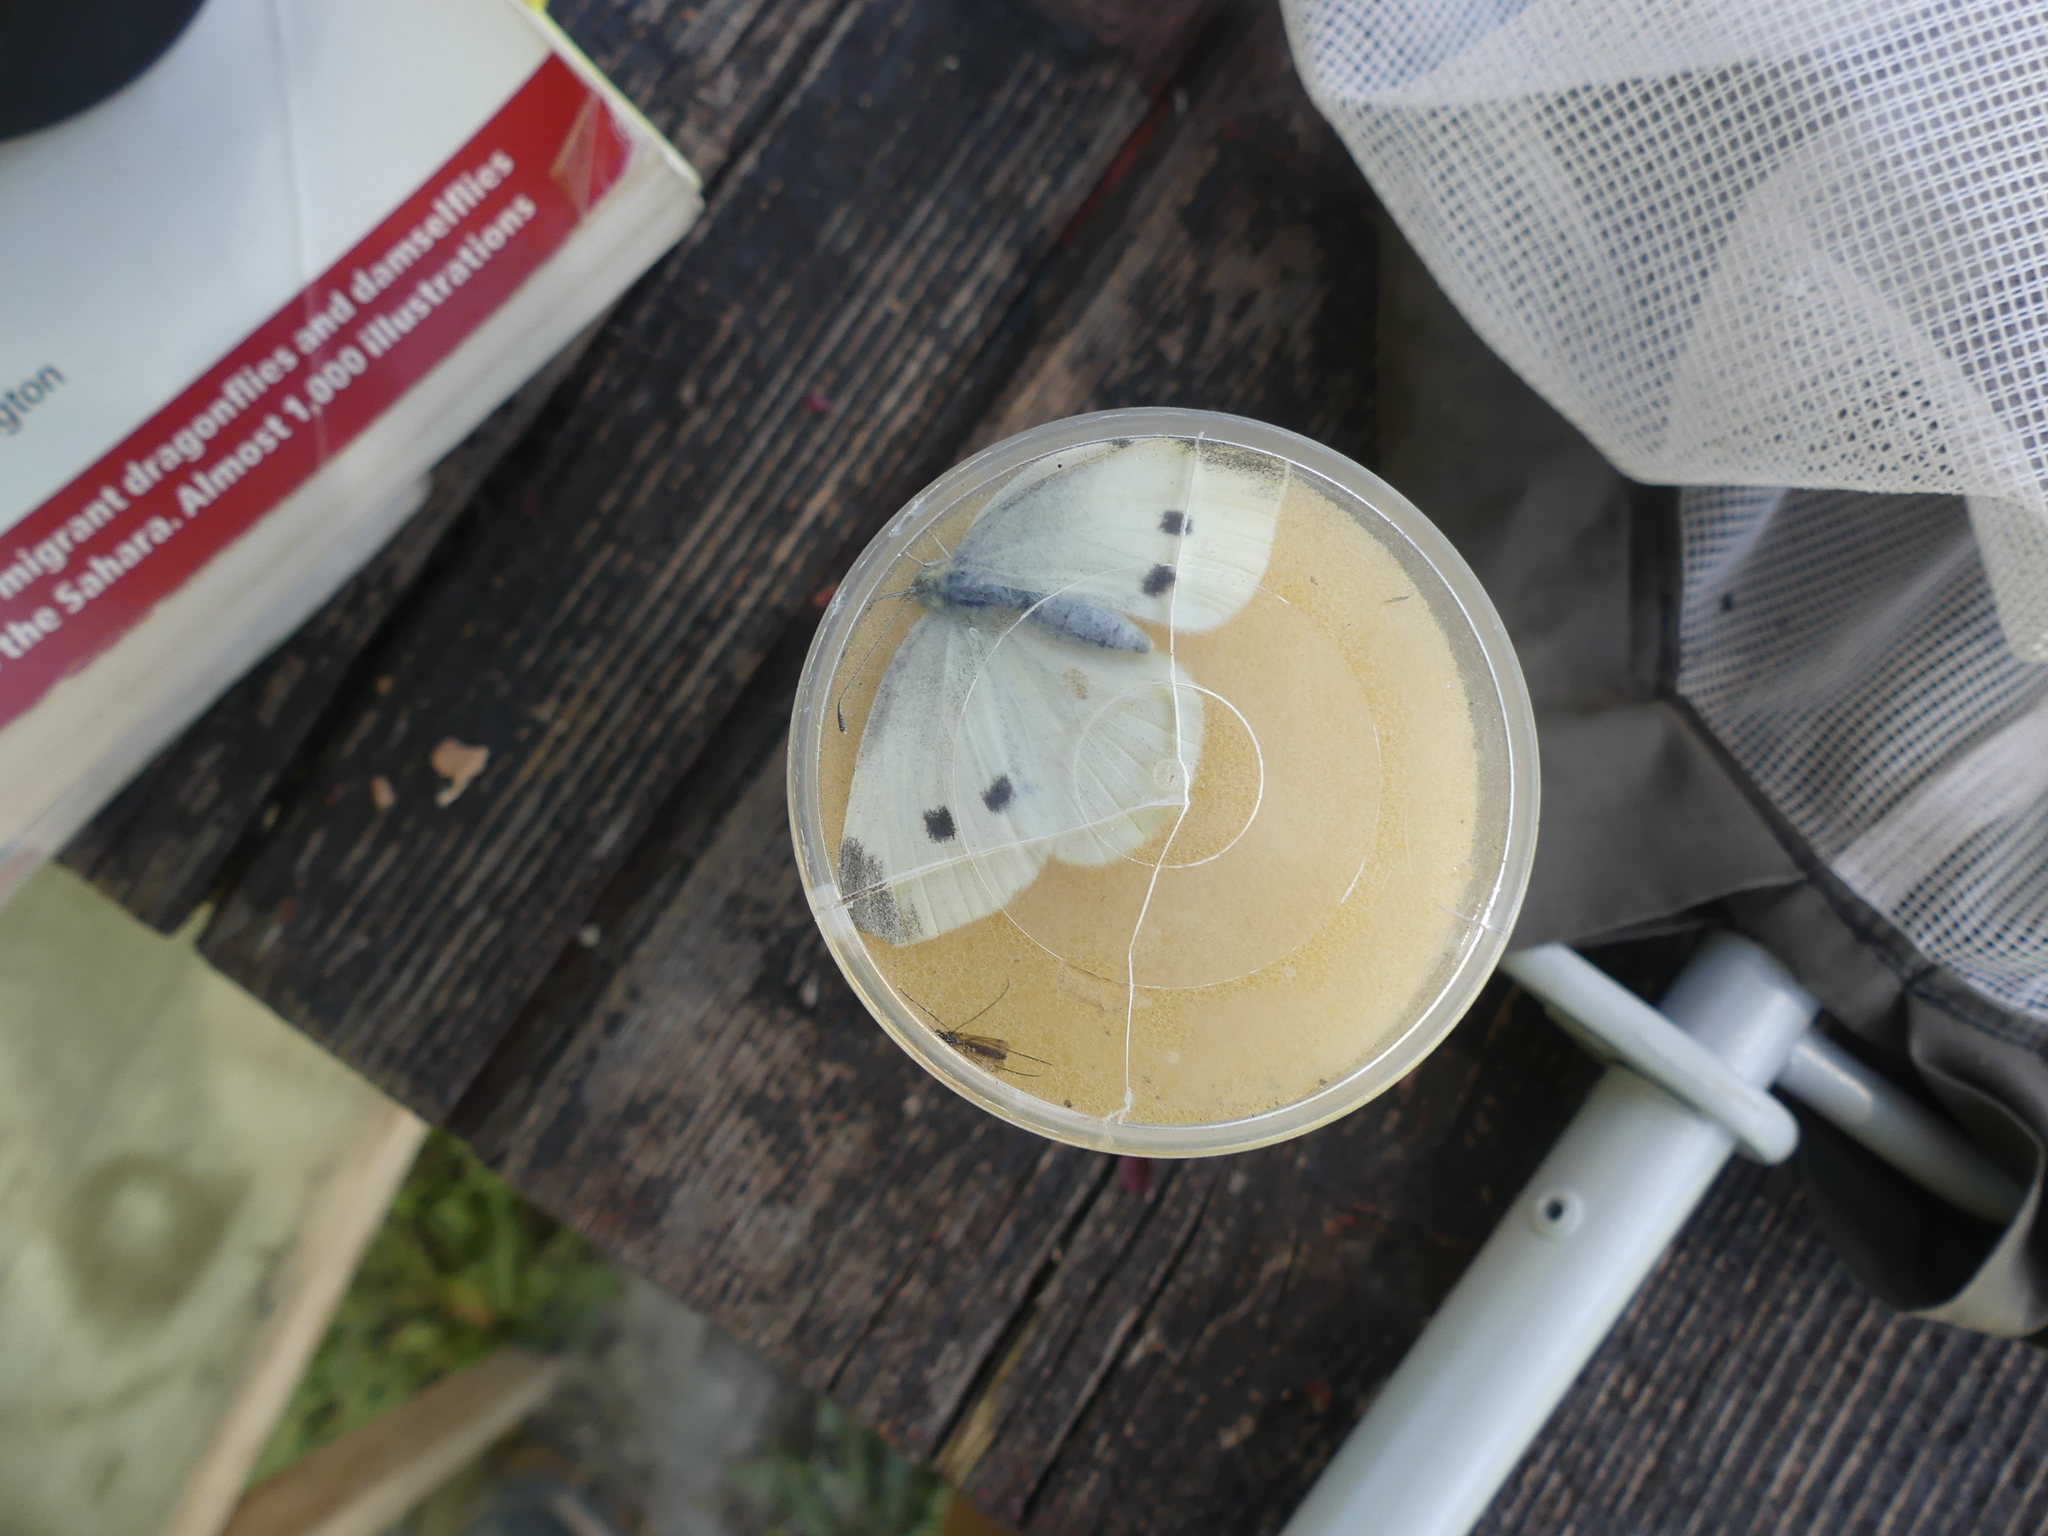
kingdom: Animalia
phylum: Arthropoda
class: Insecta
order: Lepidoptera
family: Pieridae
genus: Pieris
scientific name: Pieris rapae
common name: Small white
